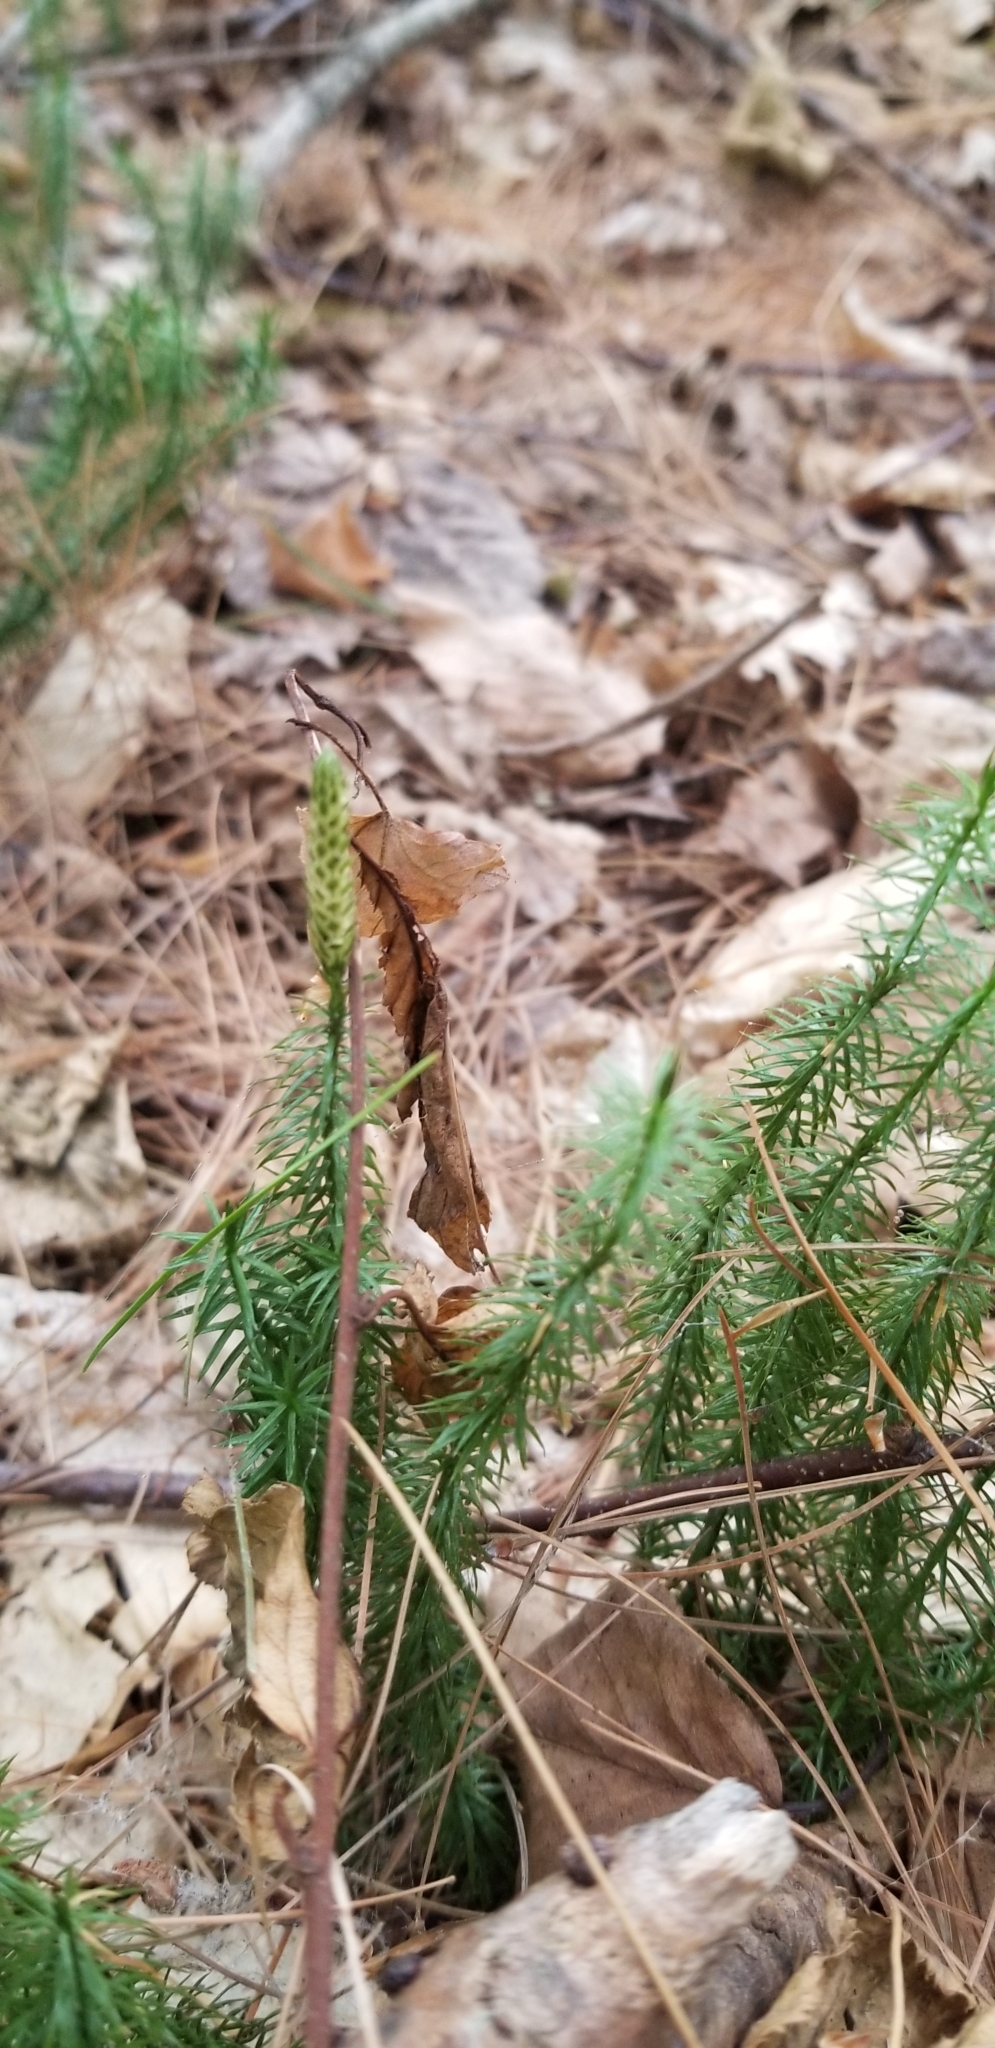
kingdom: Plantae
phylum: Tracheophyta
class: Lycopodiopsida
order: Lycopodiales
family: Lycopodiaceae
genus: Spinulum
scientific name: Spinulum annotinum
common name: Interrupted club-moss
